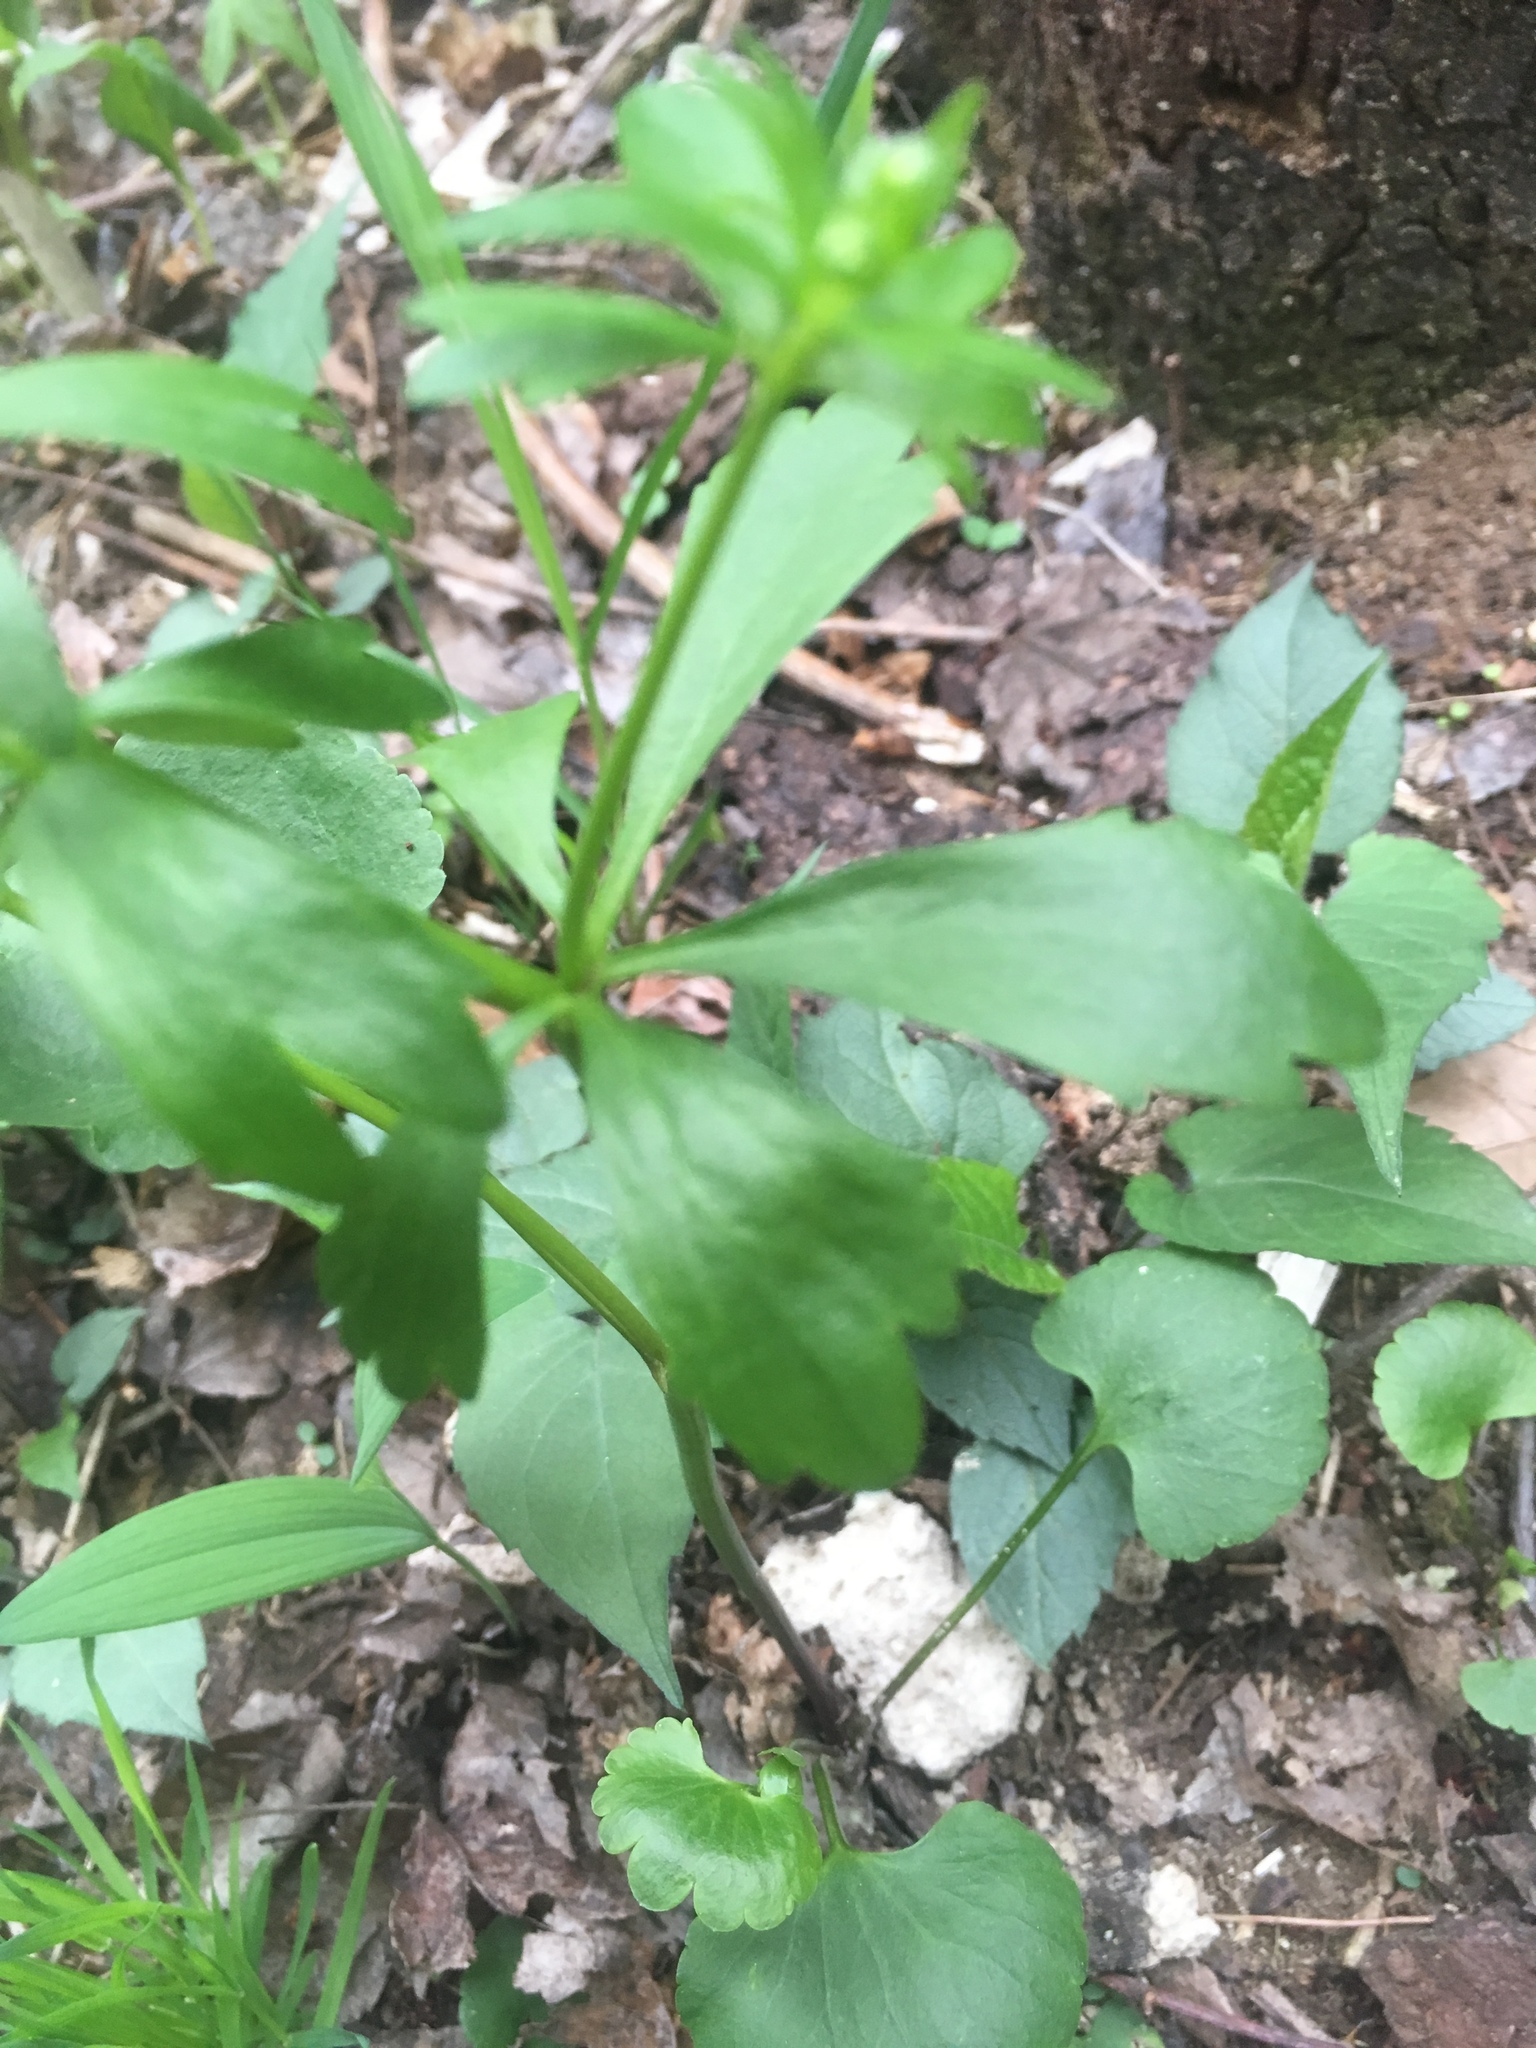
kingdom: Plantae
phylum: Tracheophyta
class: Magnoliopsida
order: Ranunculales
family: Ranunculaceae
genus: Ranunculus
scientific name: Ranunculus abortivus
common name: Early wood buttercup
